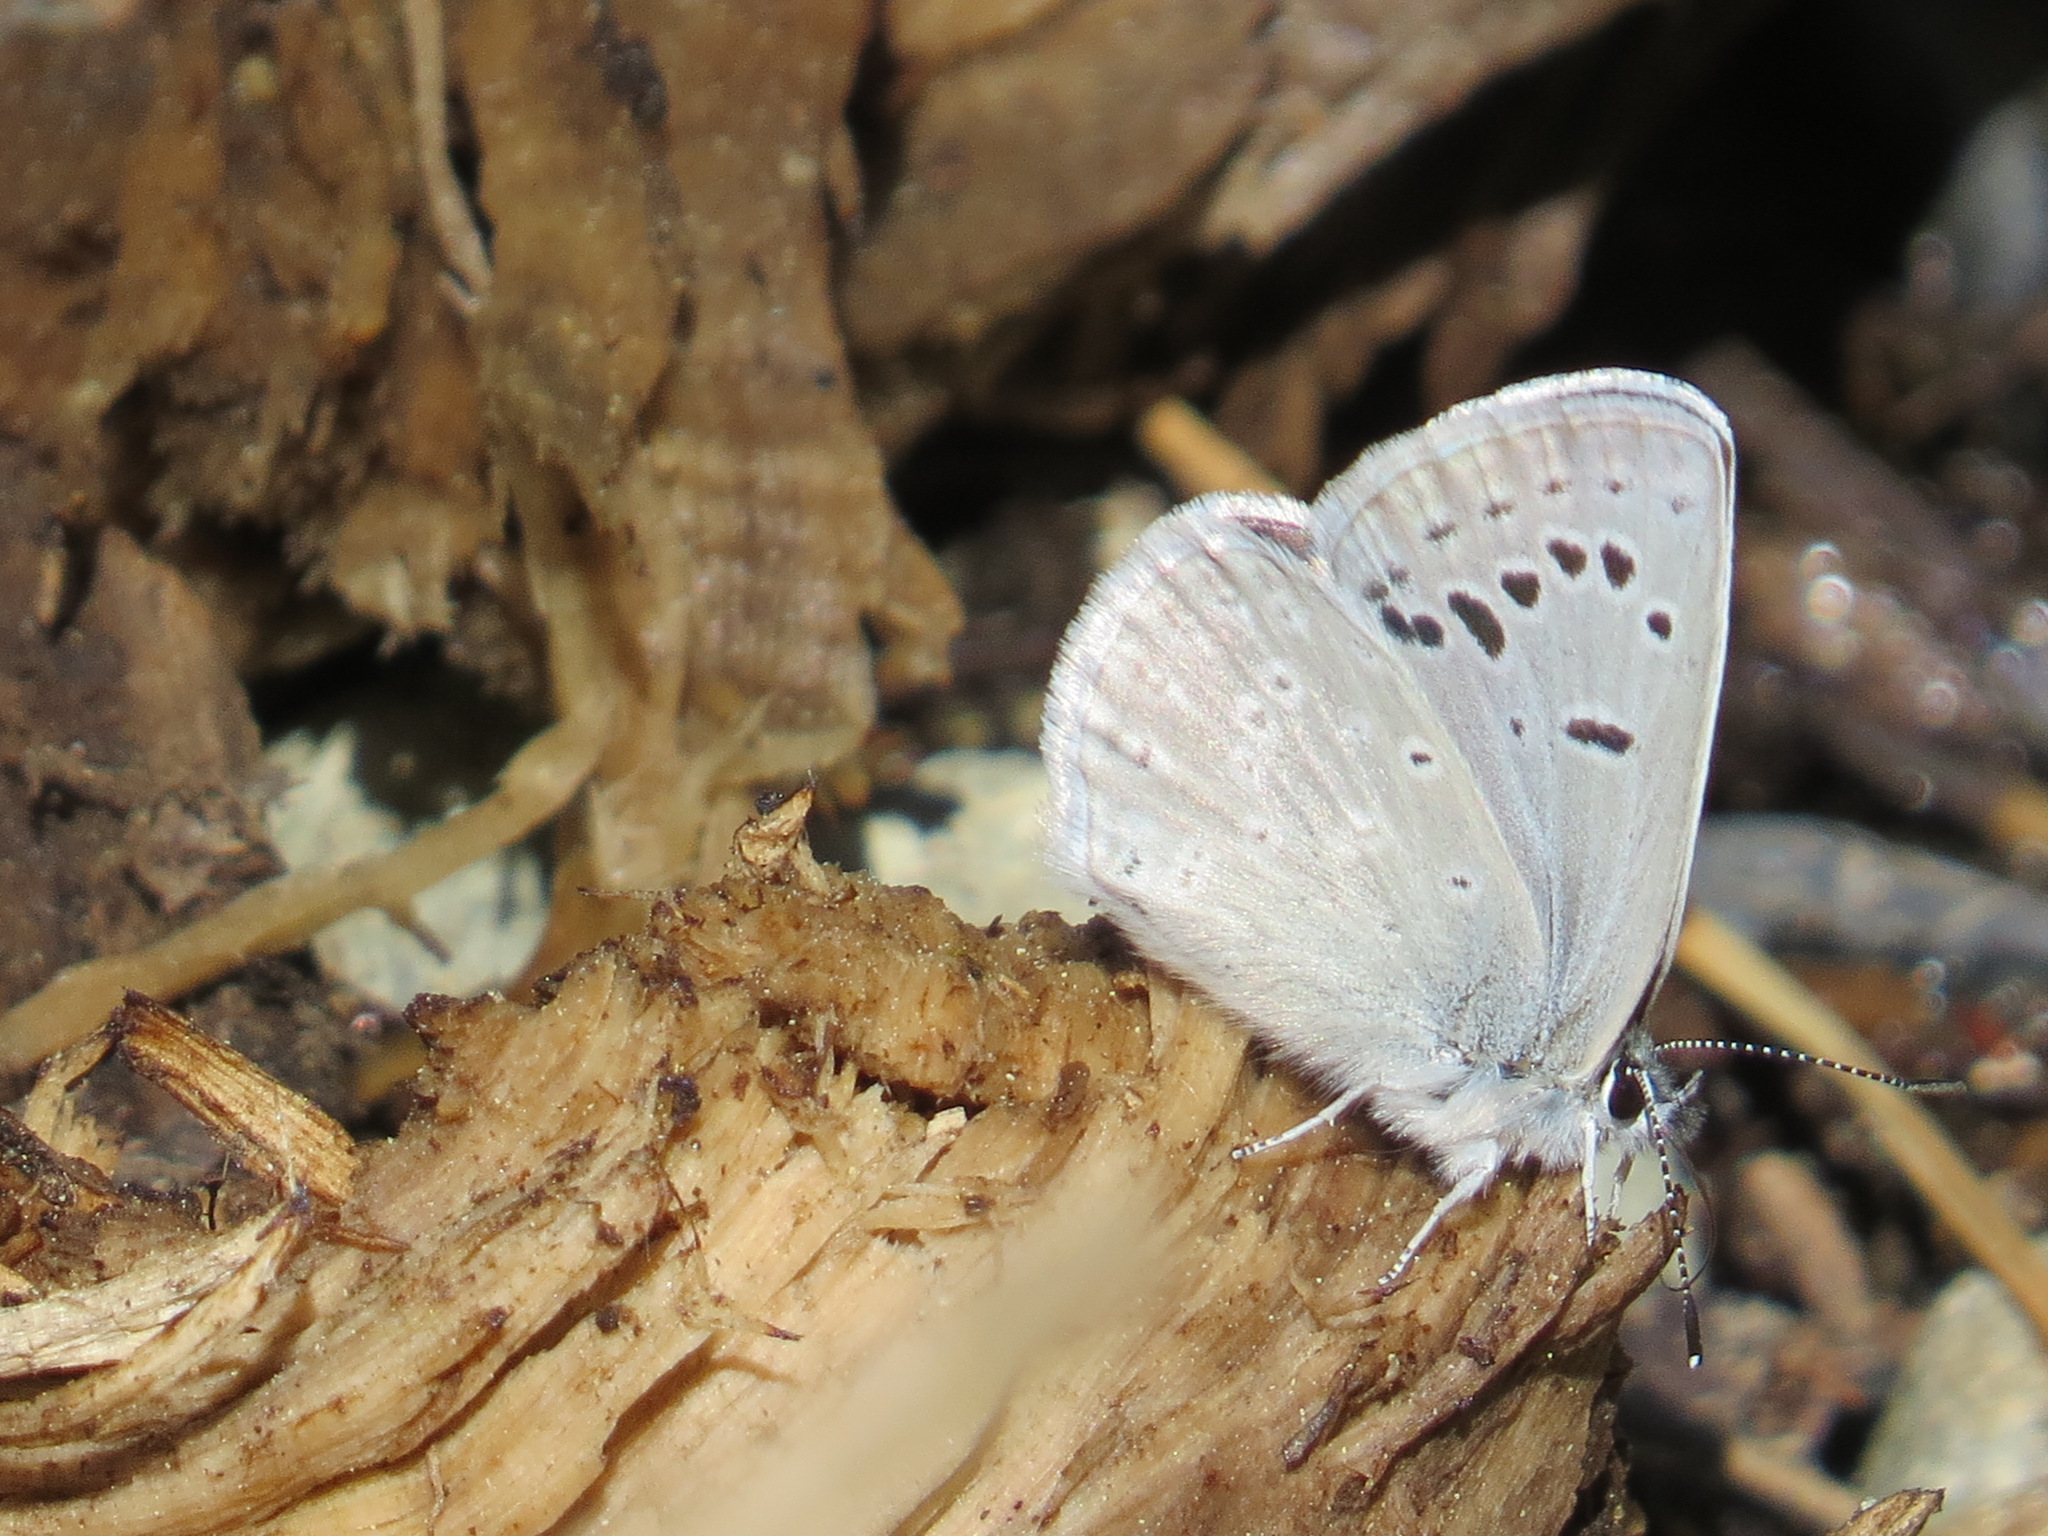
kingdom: Animalia
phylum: Arthropoda
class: Insecta
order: Lepidoptera
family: Lycaenidae
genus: Icaricia
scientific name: Icaricia icarioides
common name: Boisduval's blue
